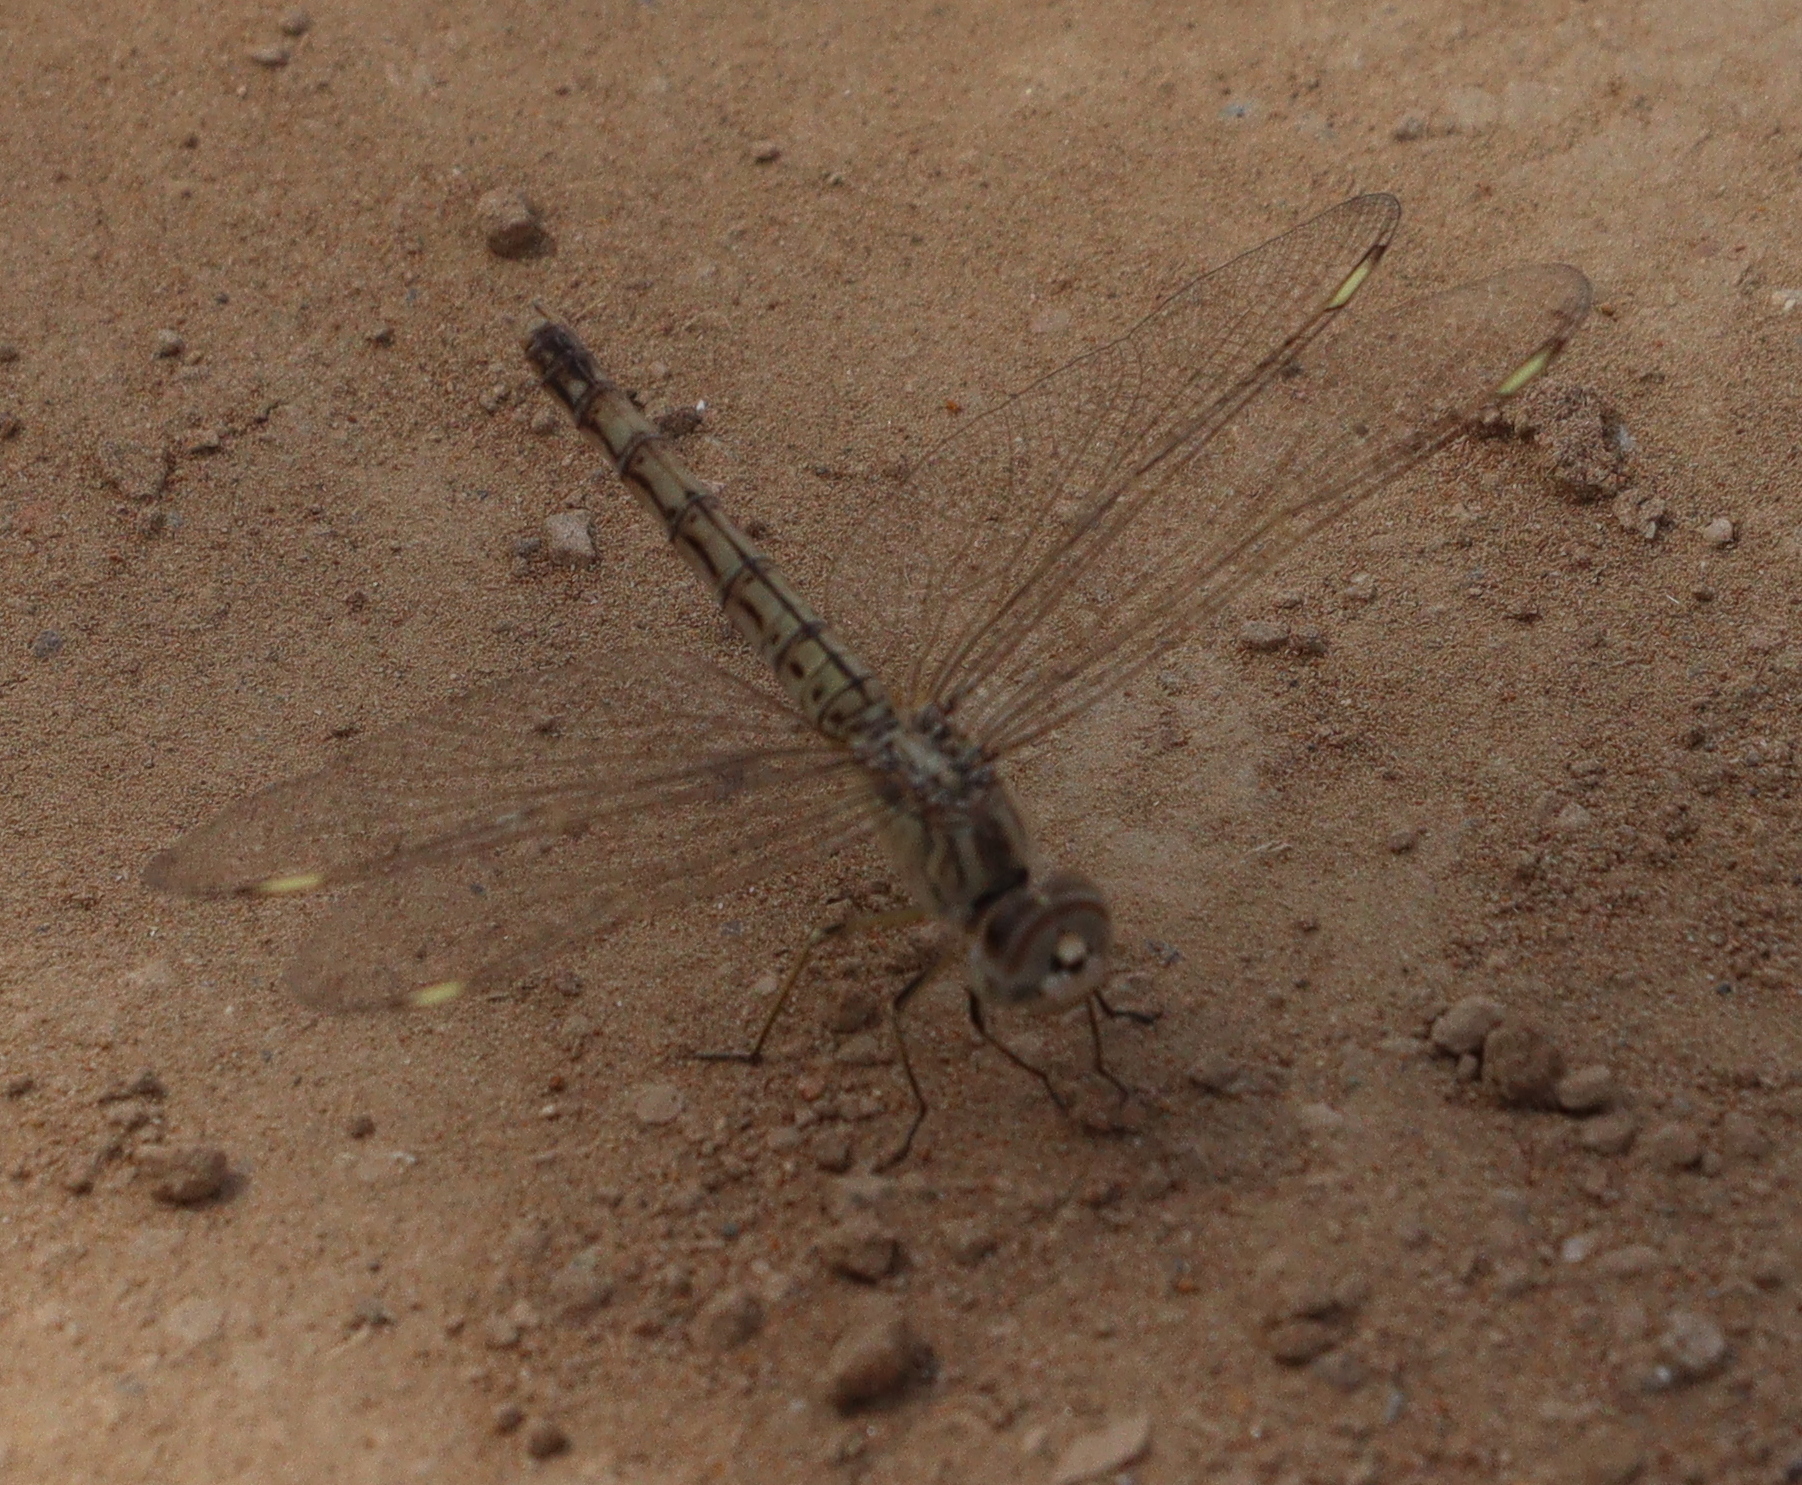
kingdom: Animalia
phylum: Arthropoda
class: Insecta
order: Odonata
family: Libellulidae
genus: Brachythemis
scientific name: Brachythemis impartita
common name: Banded groundling
